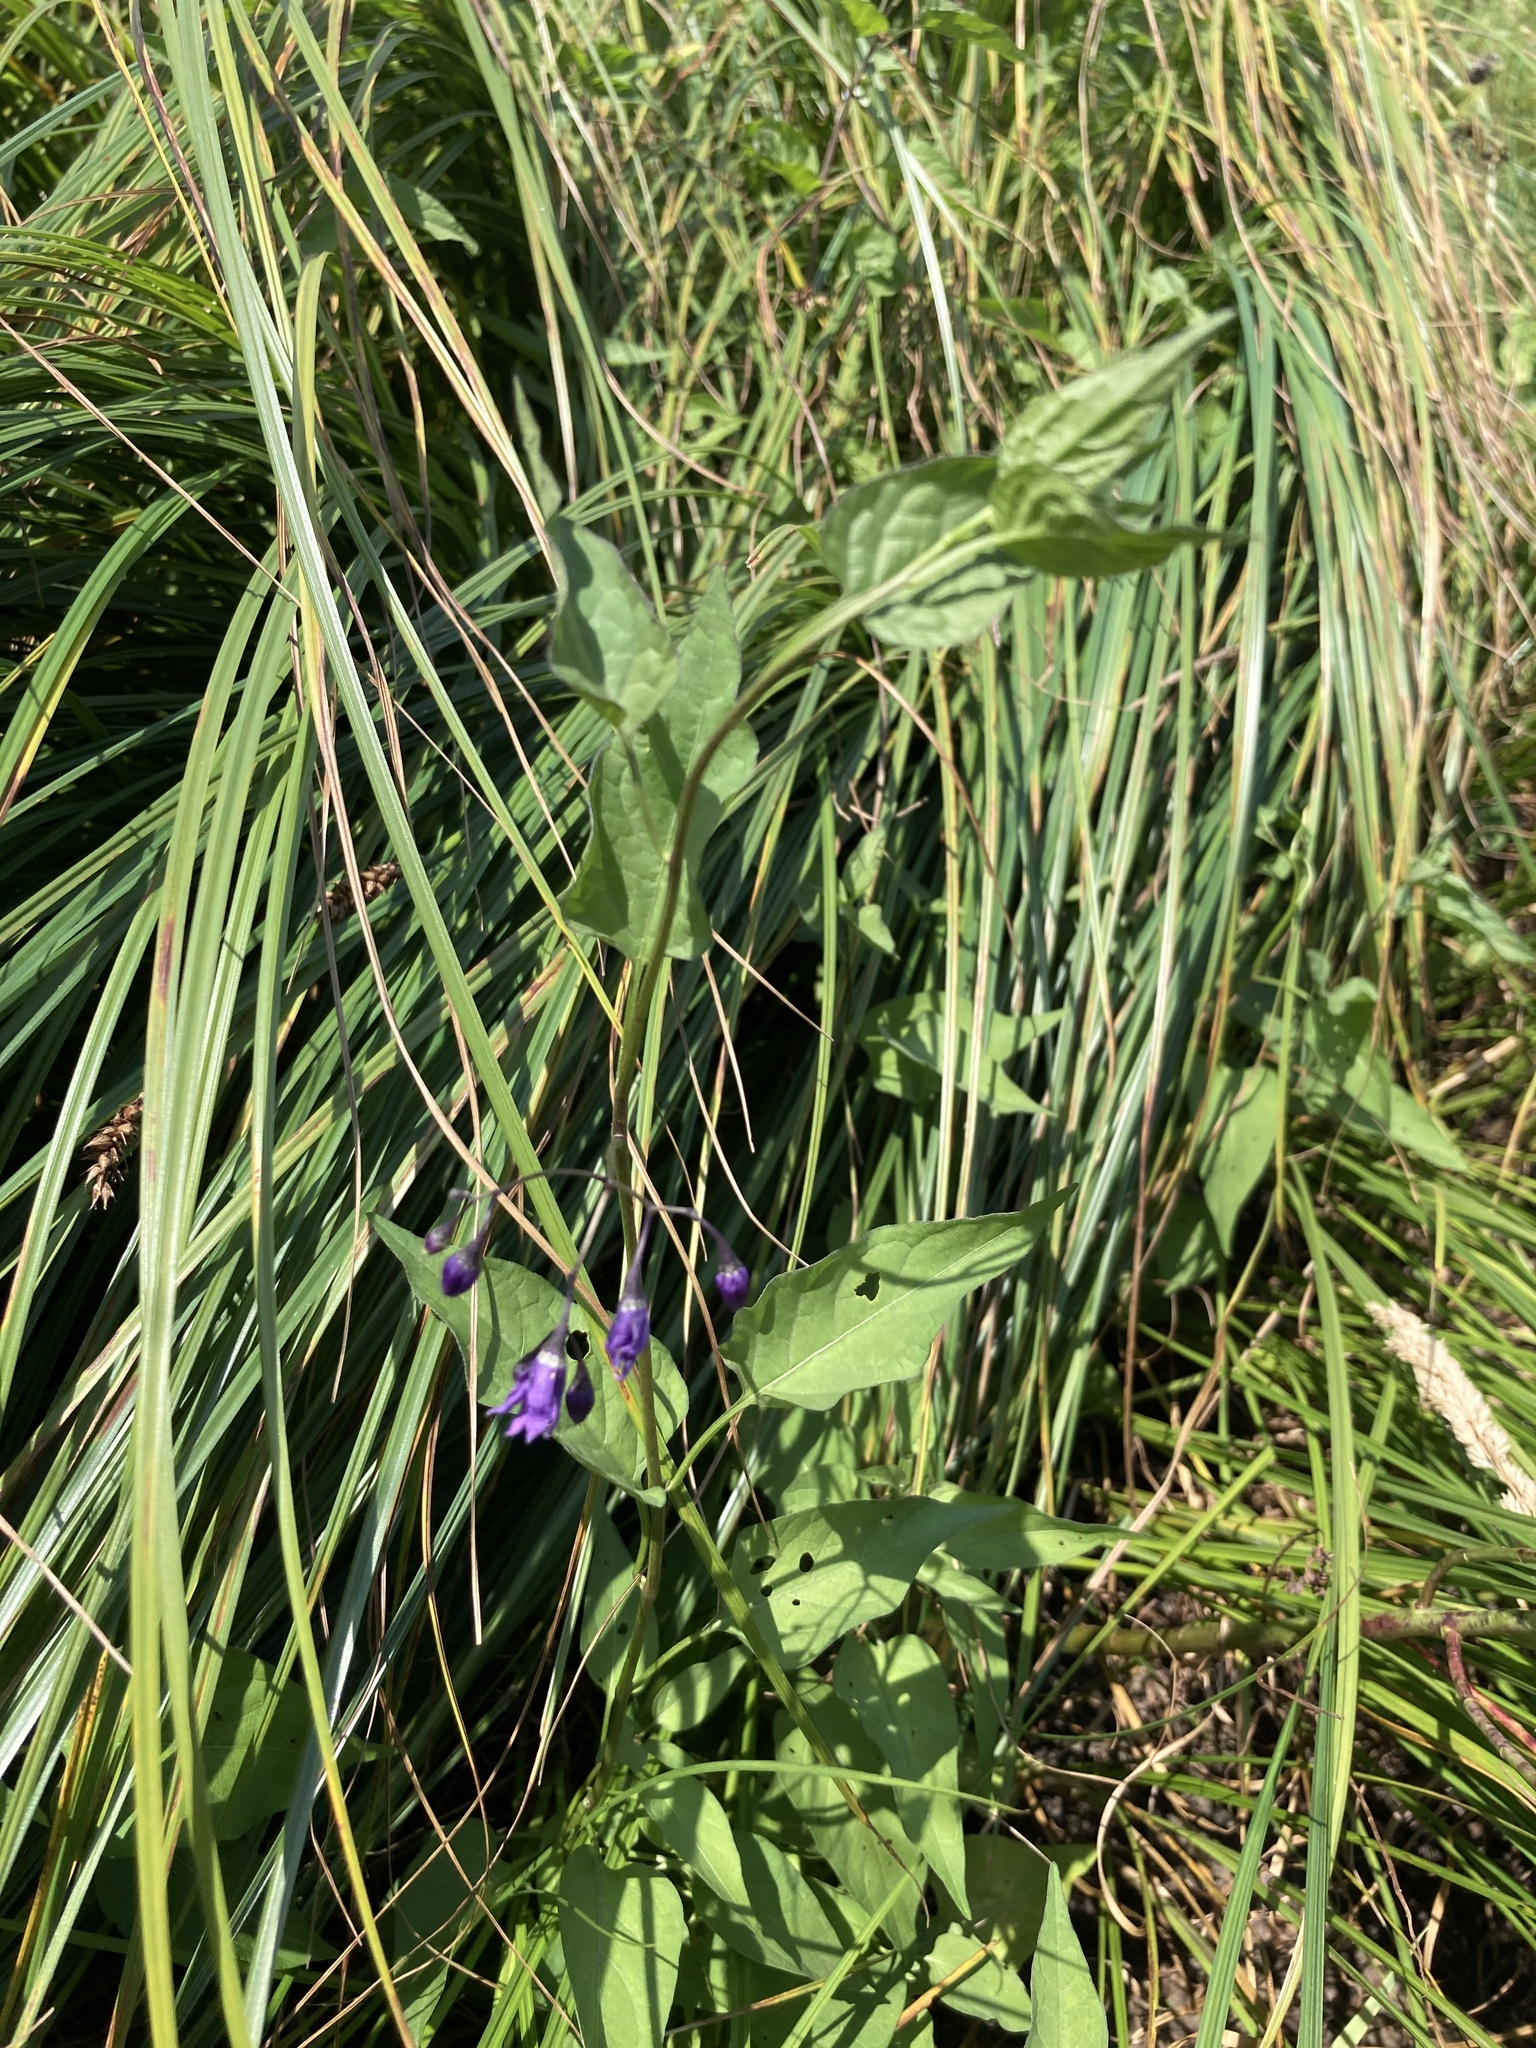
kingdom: Plantae
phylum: Tracheophyta
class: Magnoliopsida
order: Solanales
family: Solanaceae
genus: Solanum
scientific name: Solanum dulcamara
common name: Climbing nightshade
